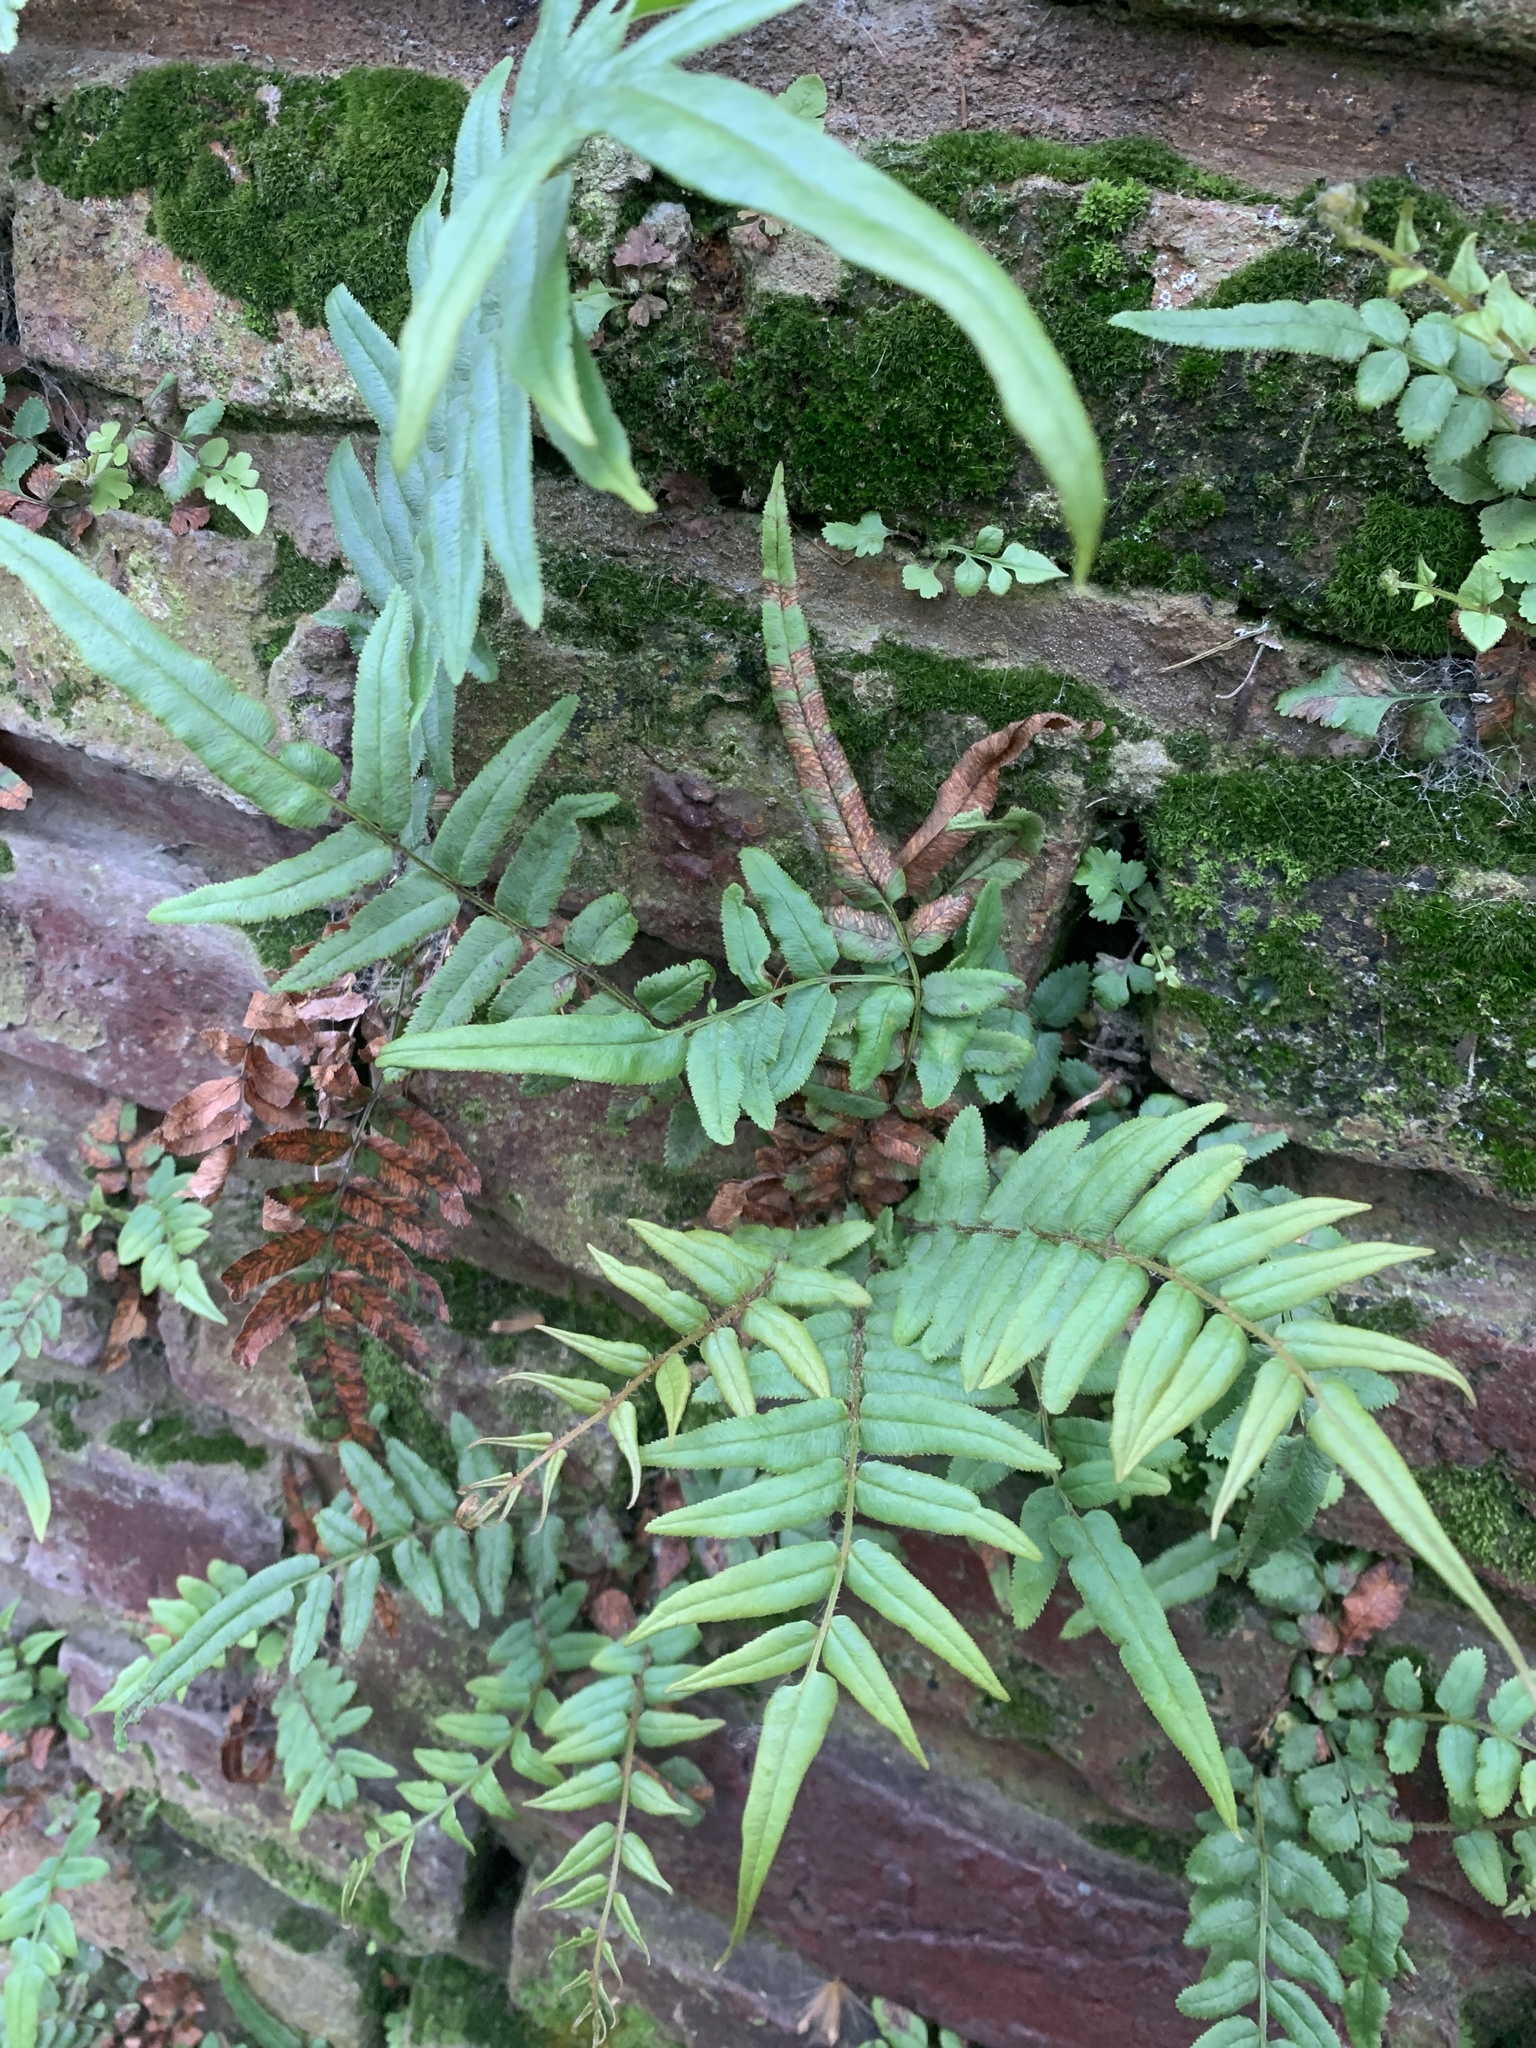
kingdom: Plantae
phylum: Tracheophyta
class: Polypodiopsida
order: Polypodiales
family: Pteridaceae
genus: Pteris
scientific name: Pteris vittata
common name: Ladder brake
